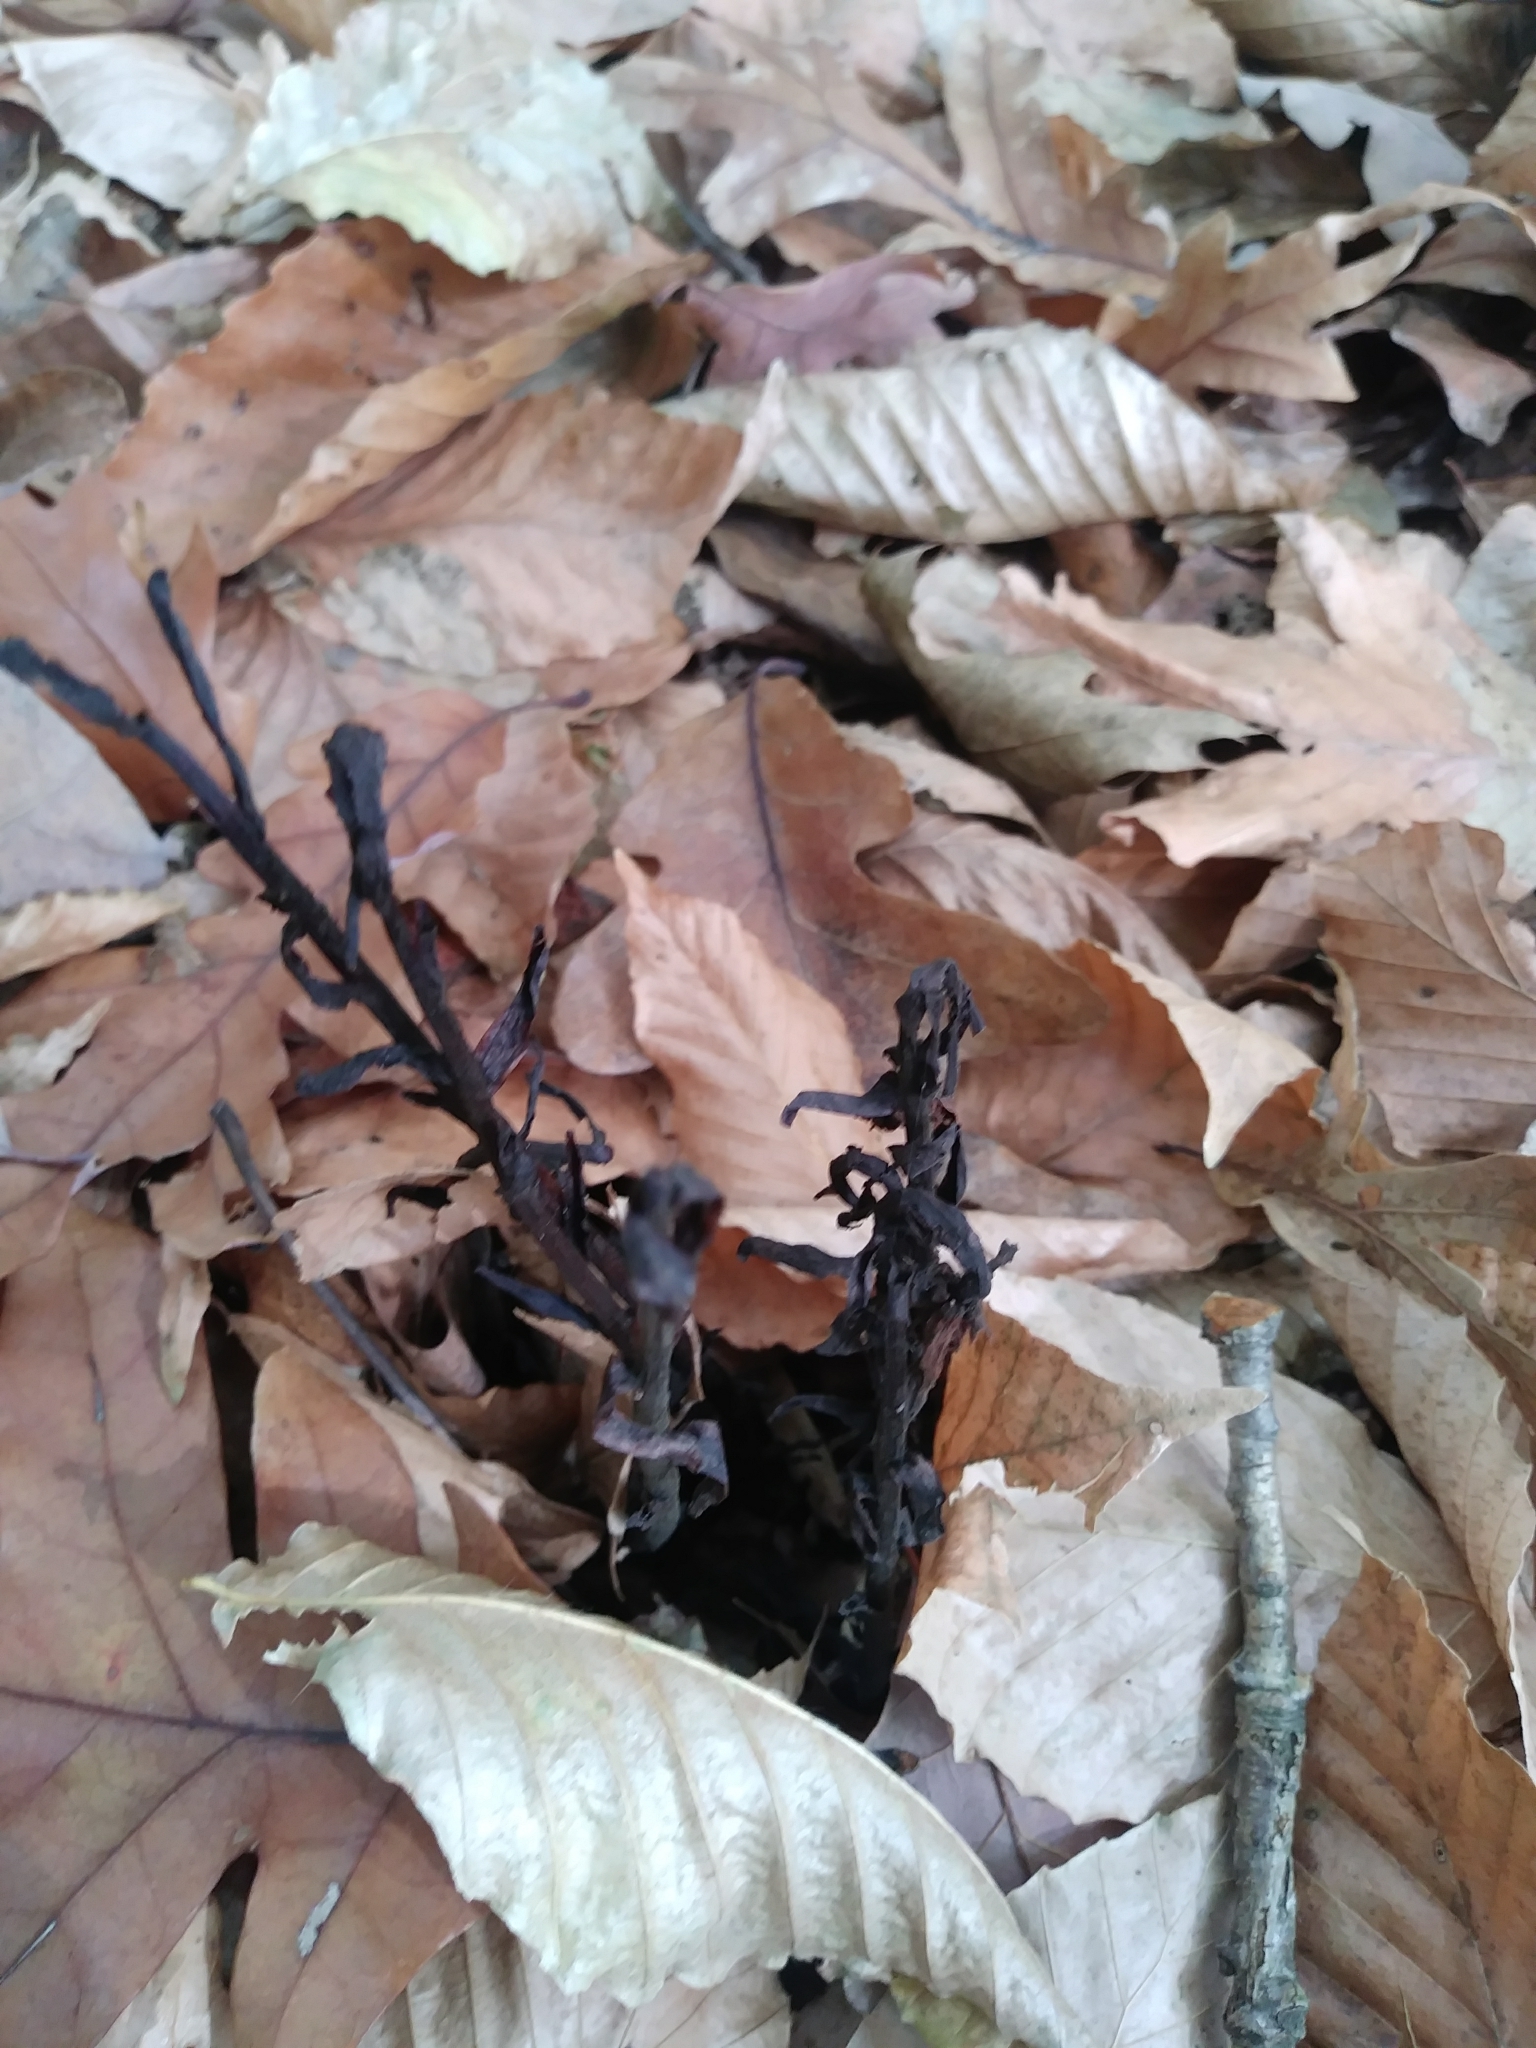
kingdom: Plantae
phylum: Tracheophyta
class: Magnoliopsida
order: Ericales
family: Ericaceae
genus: Monotropa
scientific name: Monotropa uniflora
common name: Convulsion root
